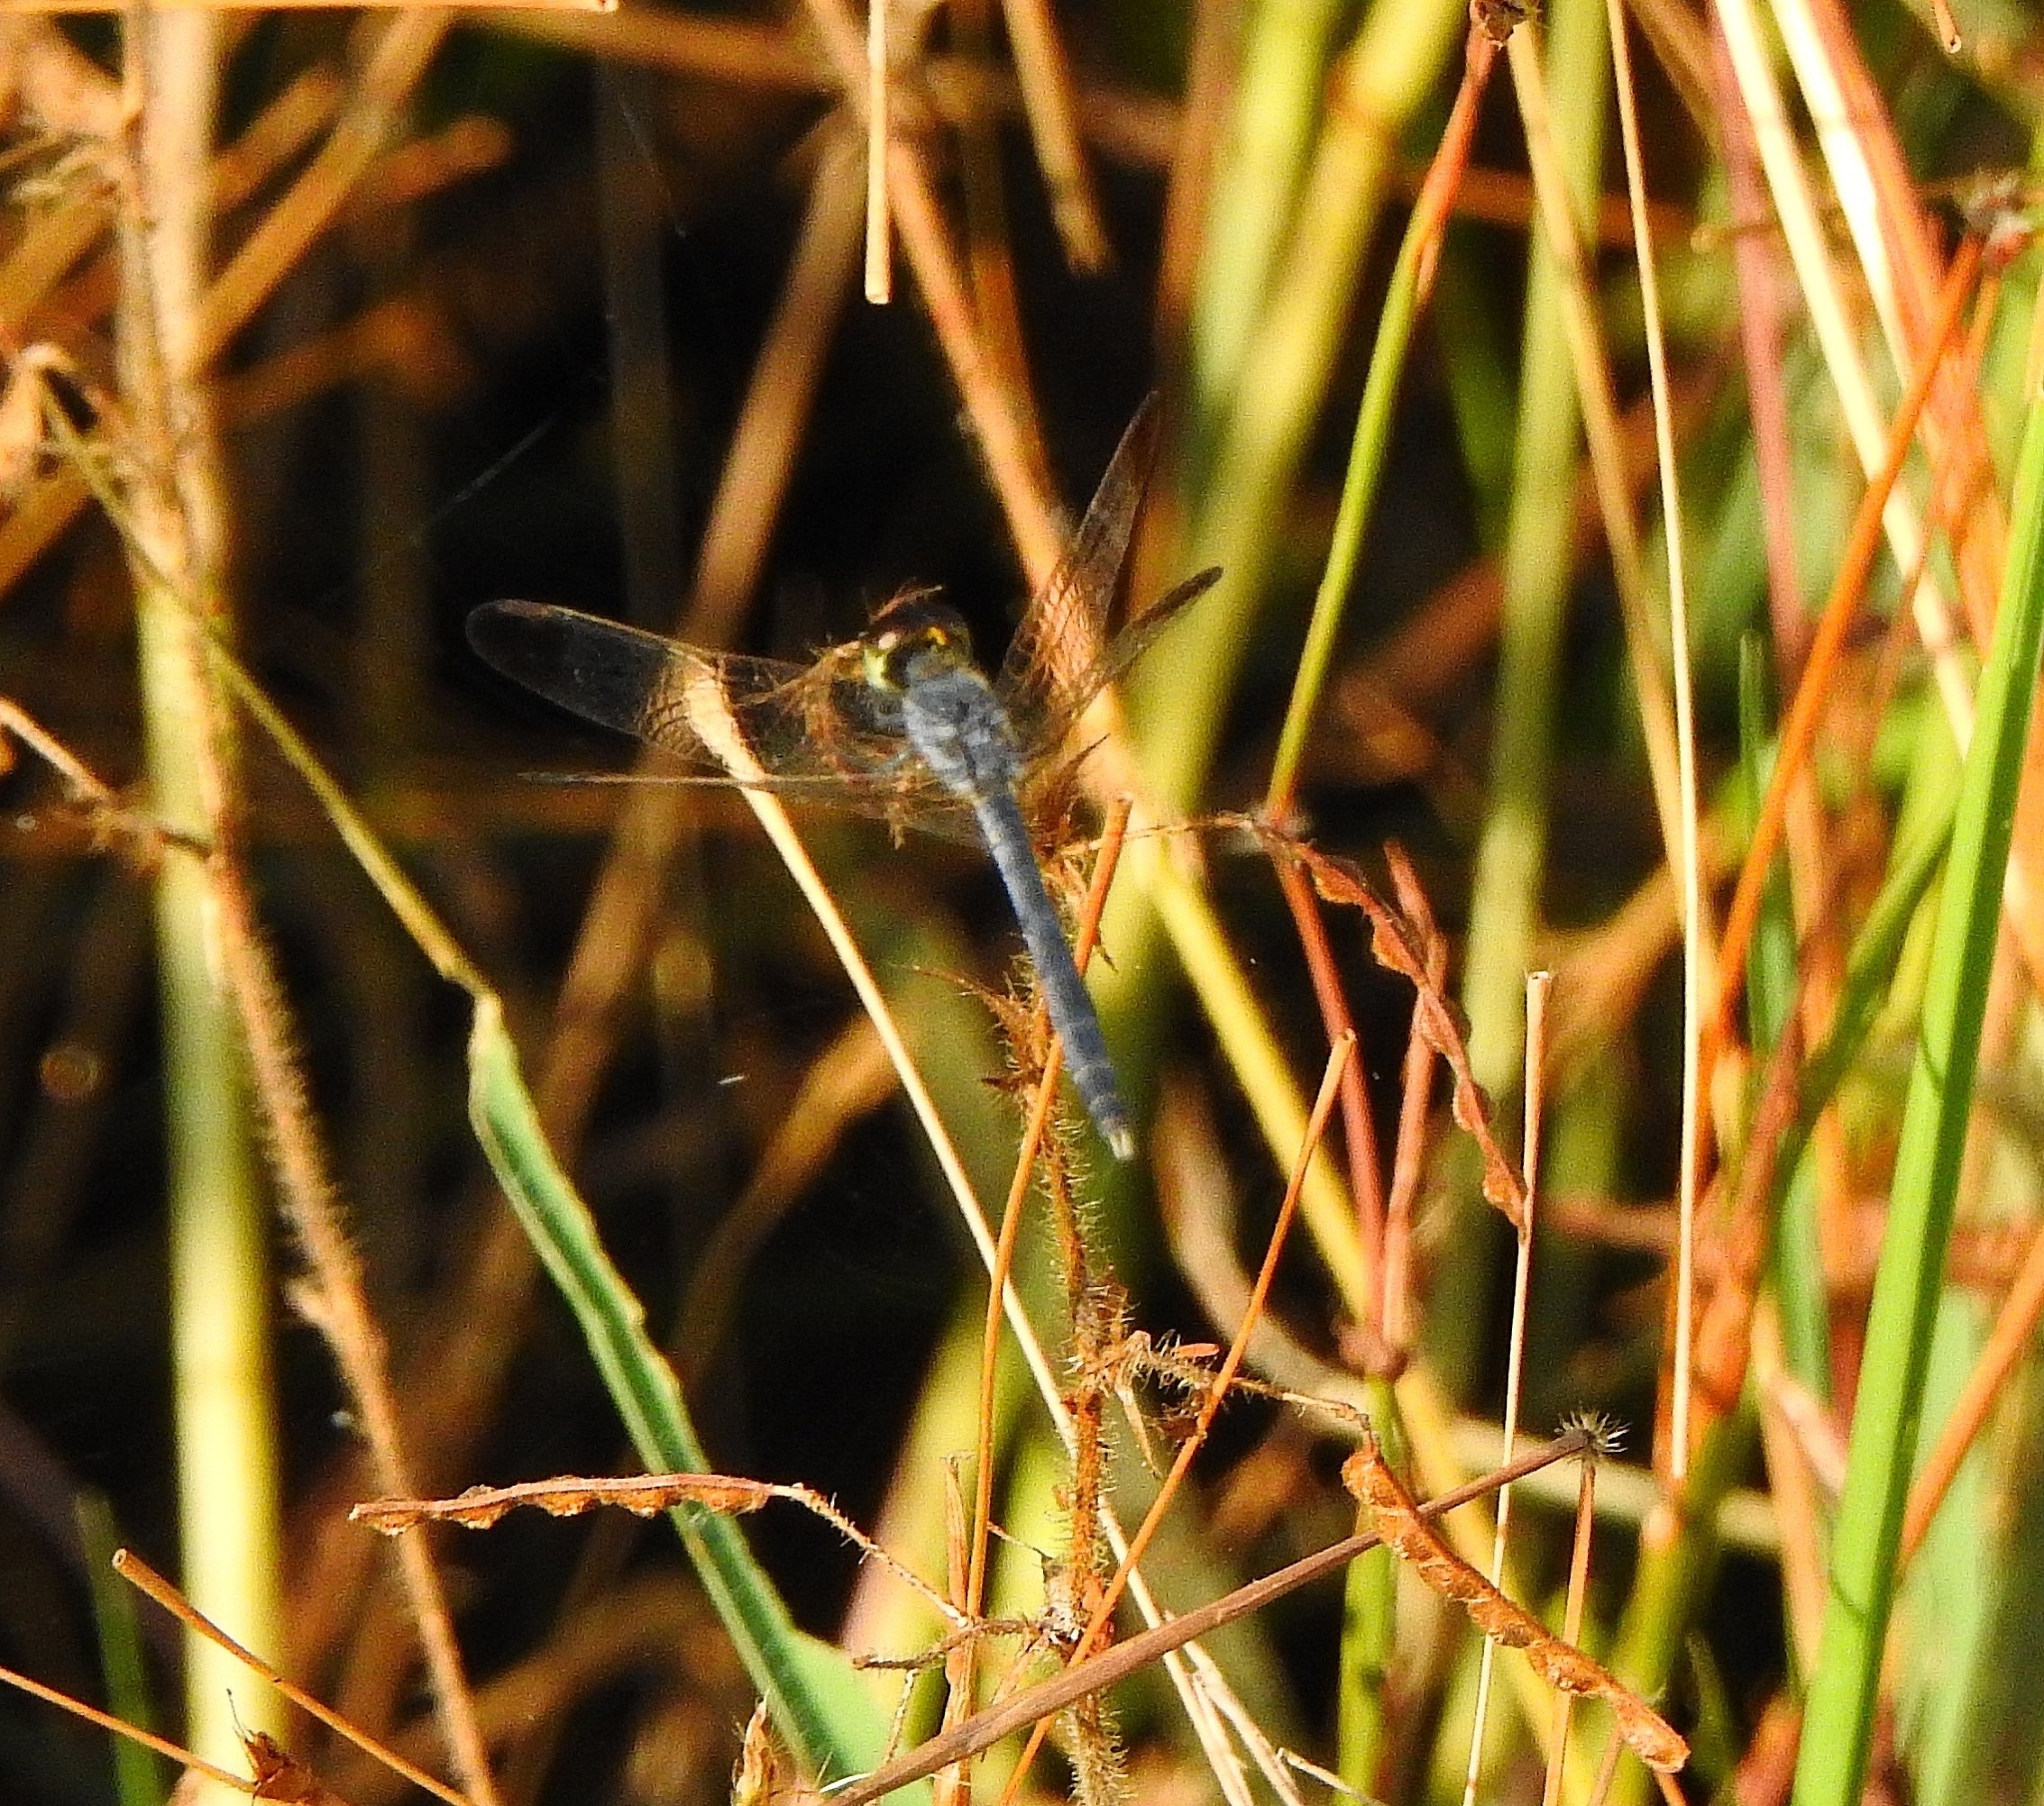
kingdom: Animalia
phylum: Arthropoda
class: Insecta
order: Odonata
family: Libellulidae
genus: Diplacodes
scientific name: Diplacodes nebulosa
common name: Black-tipped percher
